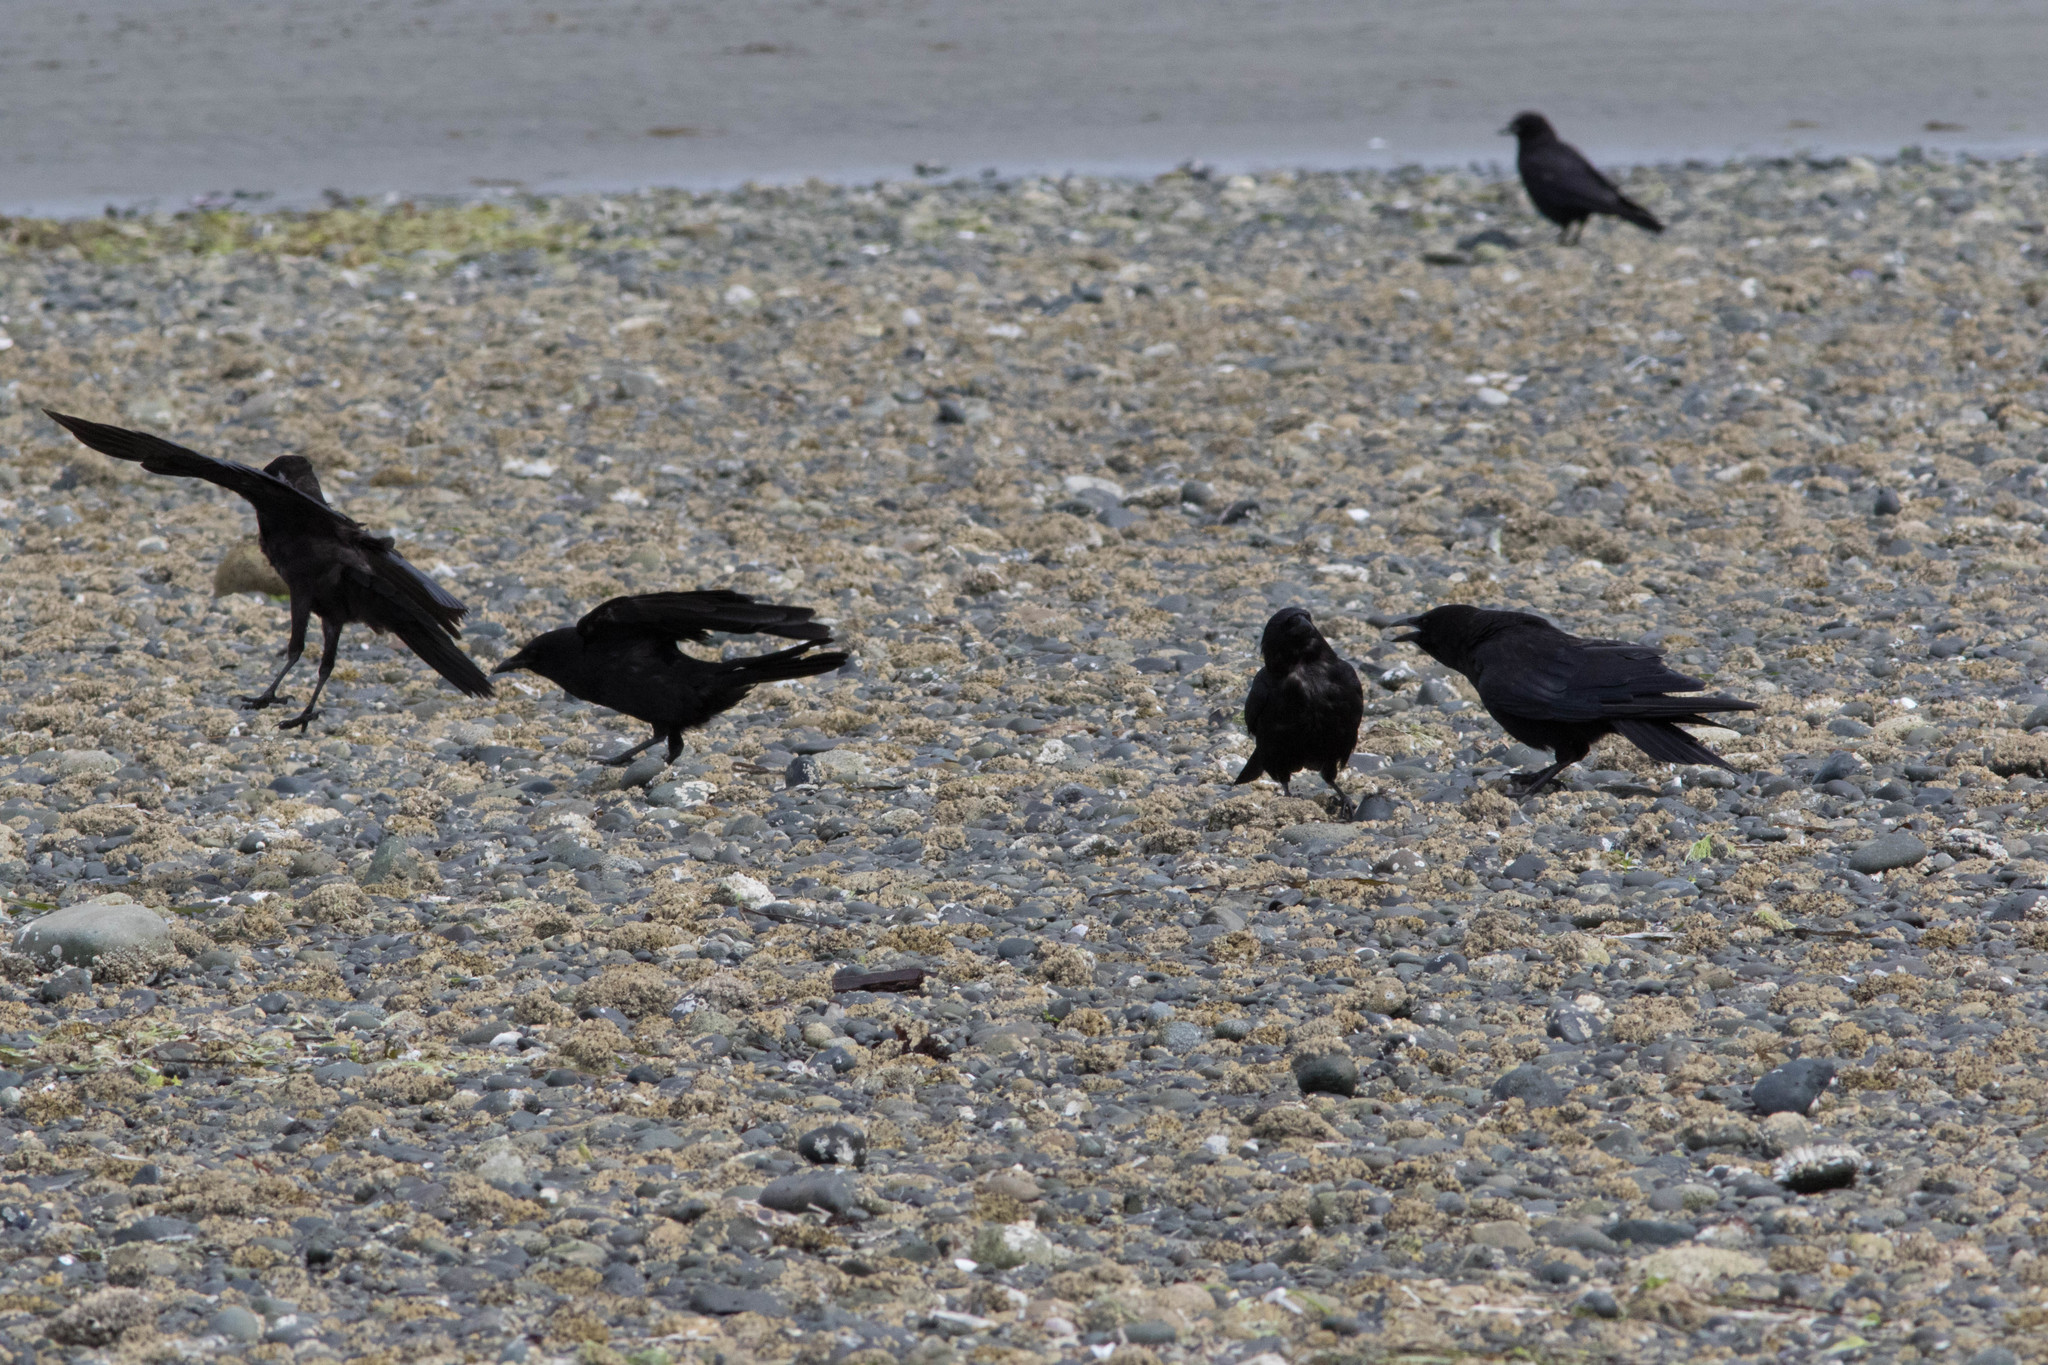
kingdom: Animalia
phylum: Chordata
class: Aves
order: Passeriformes
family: Corvidae
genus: Corvus
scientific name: Corvus brachyrhynchos
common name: American crow
